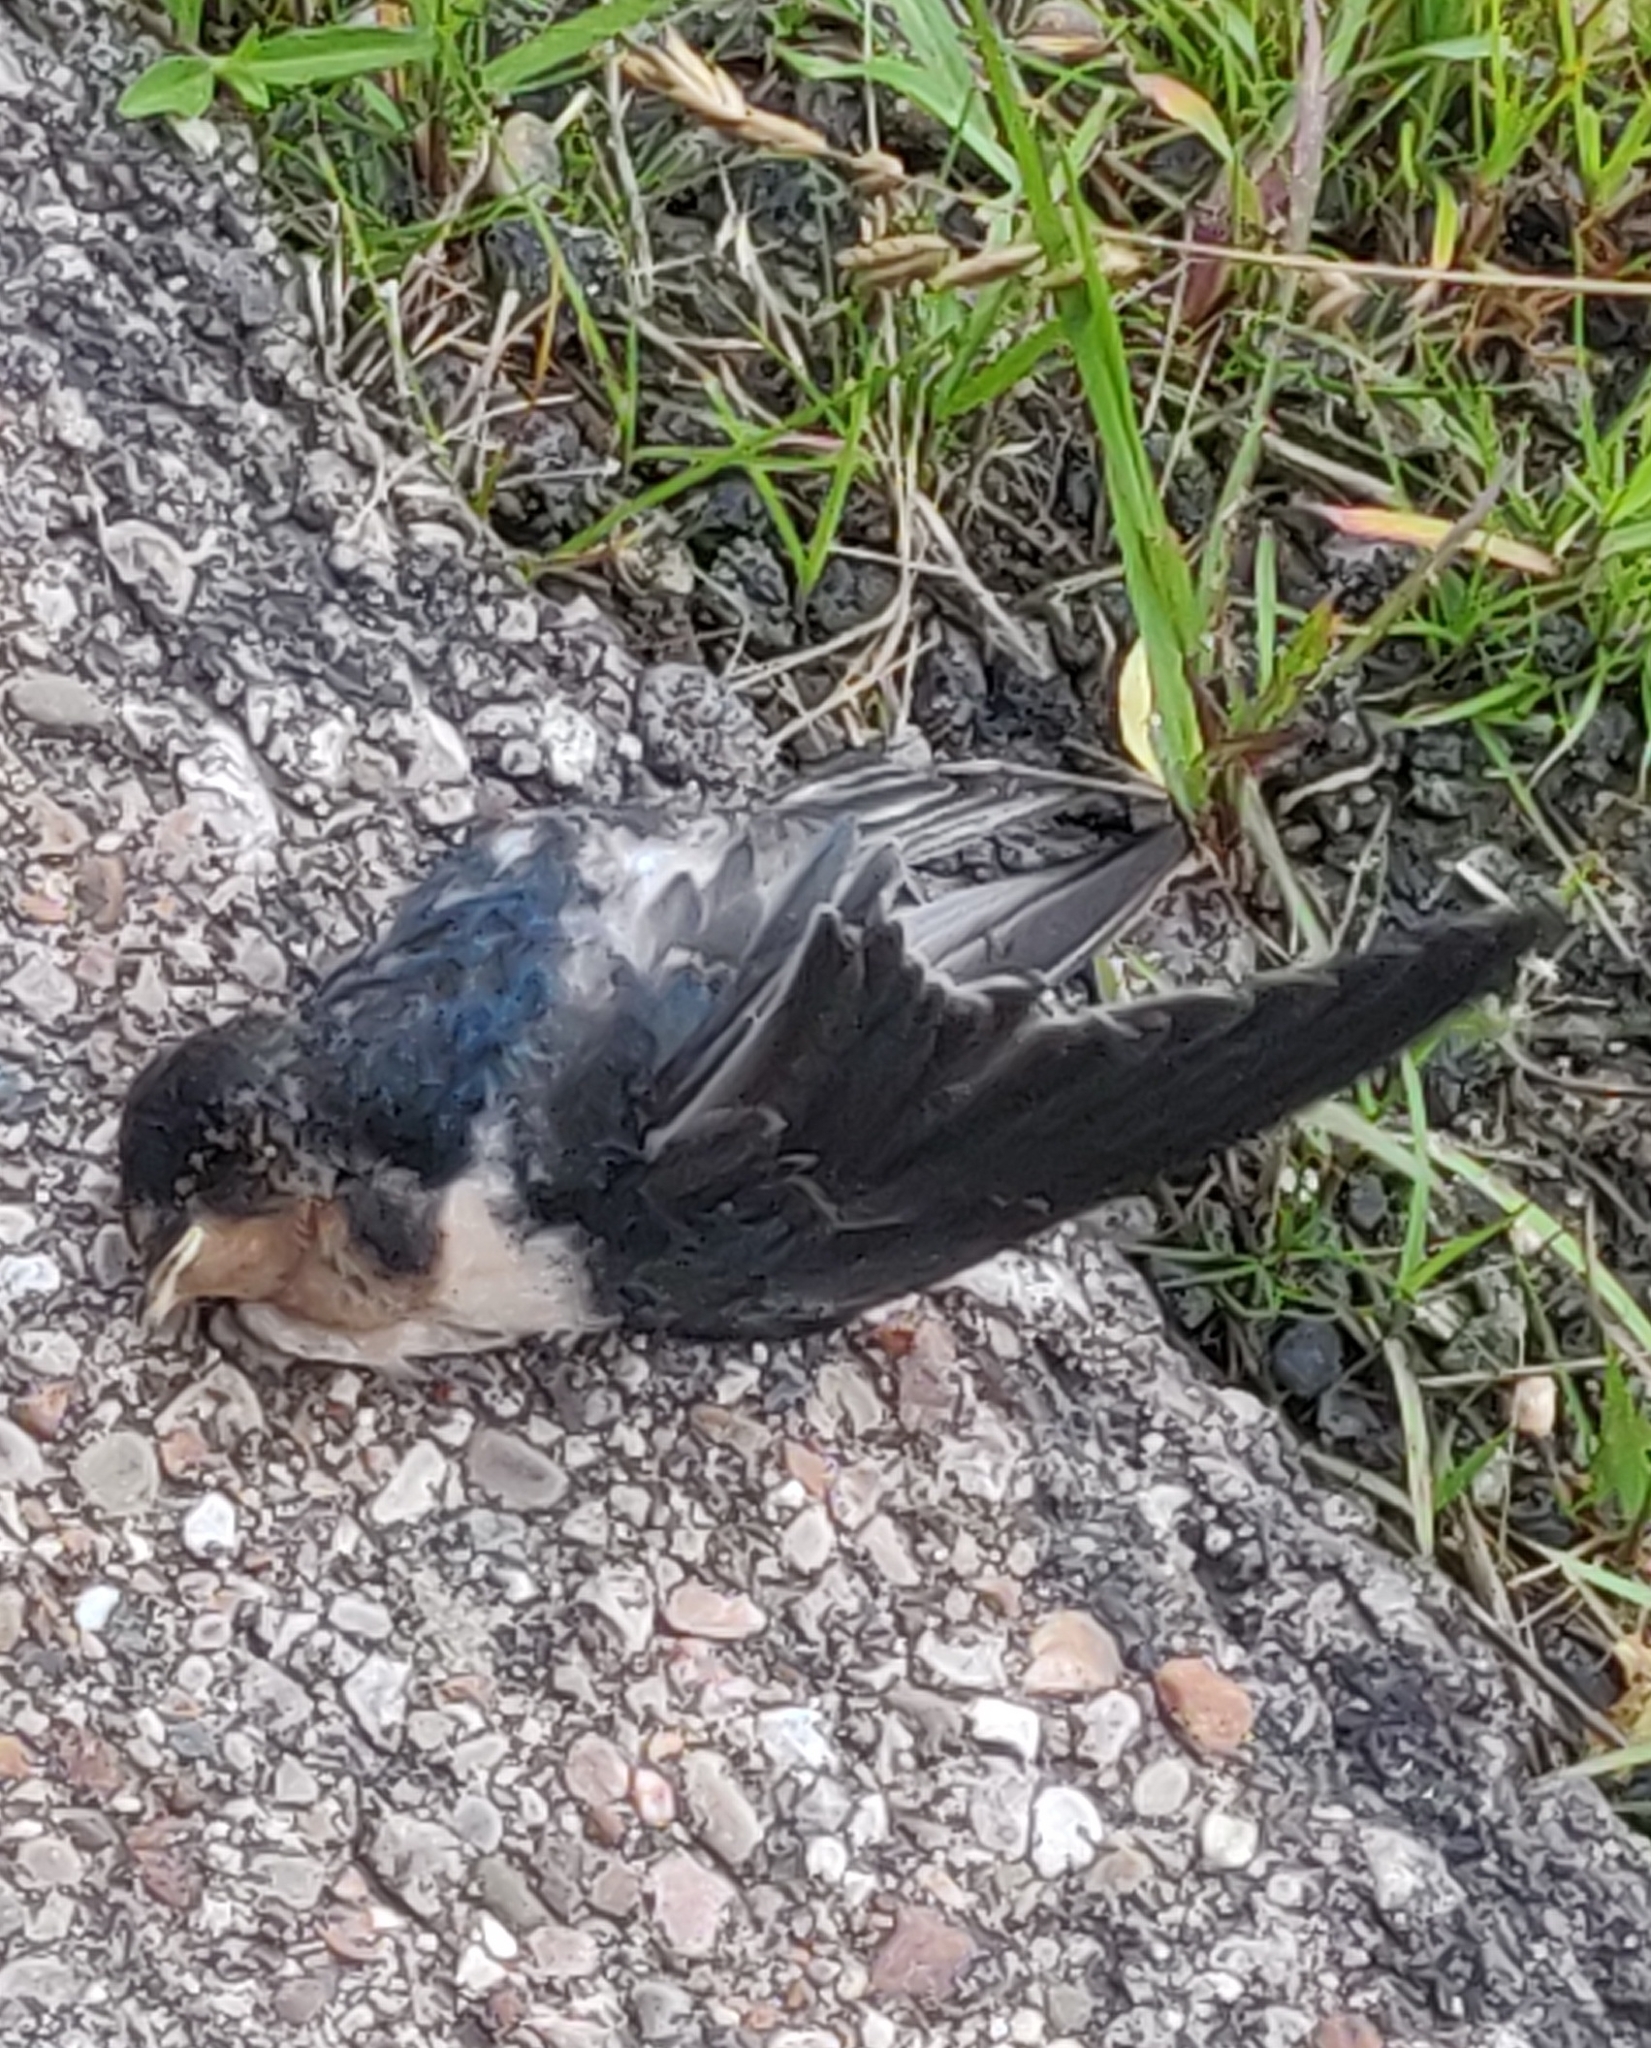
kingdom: Animalia
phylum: Chordata
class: Aves
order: Passeriformes
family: Hirundinidae
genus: Hirundo
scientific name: Hirundo rustica
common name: Barn swallow
